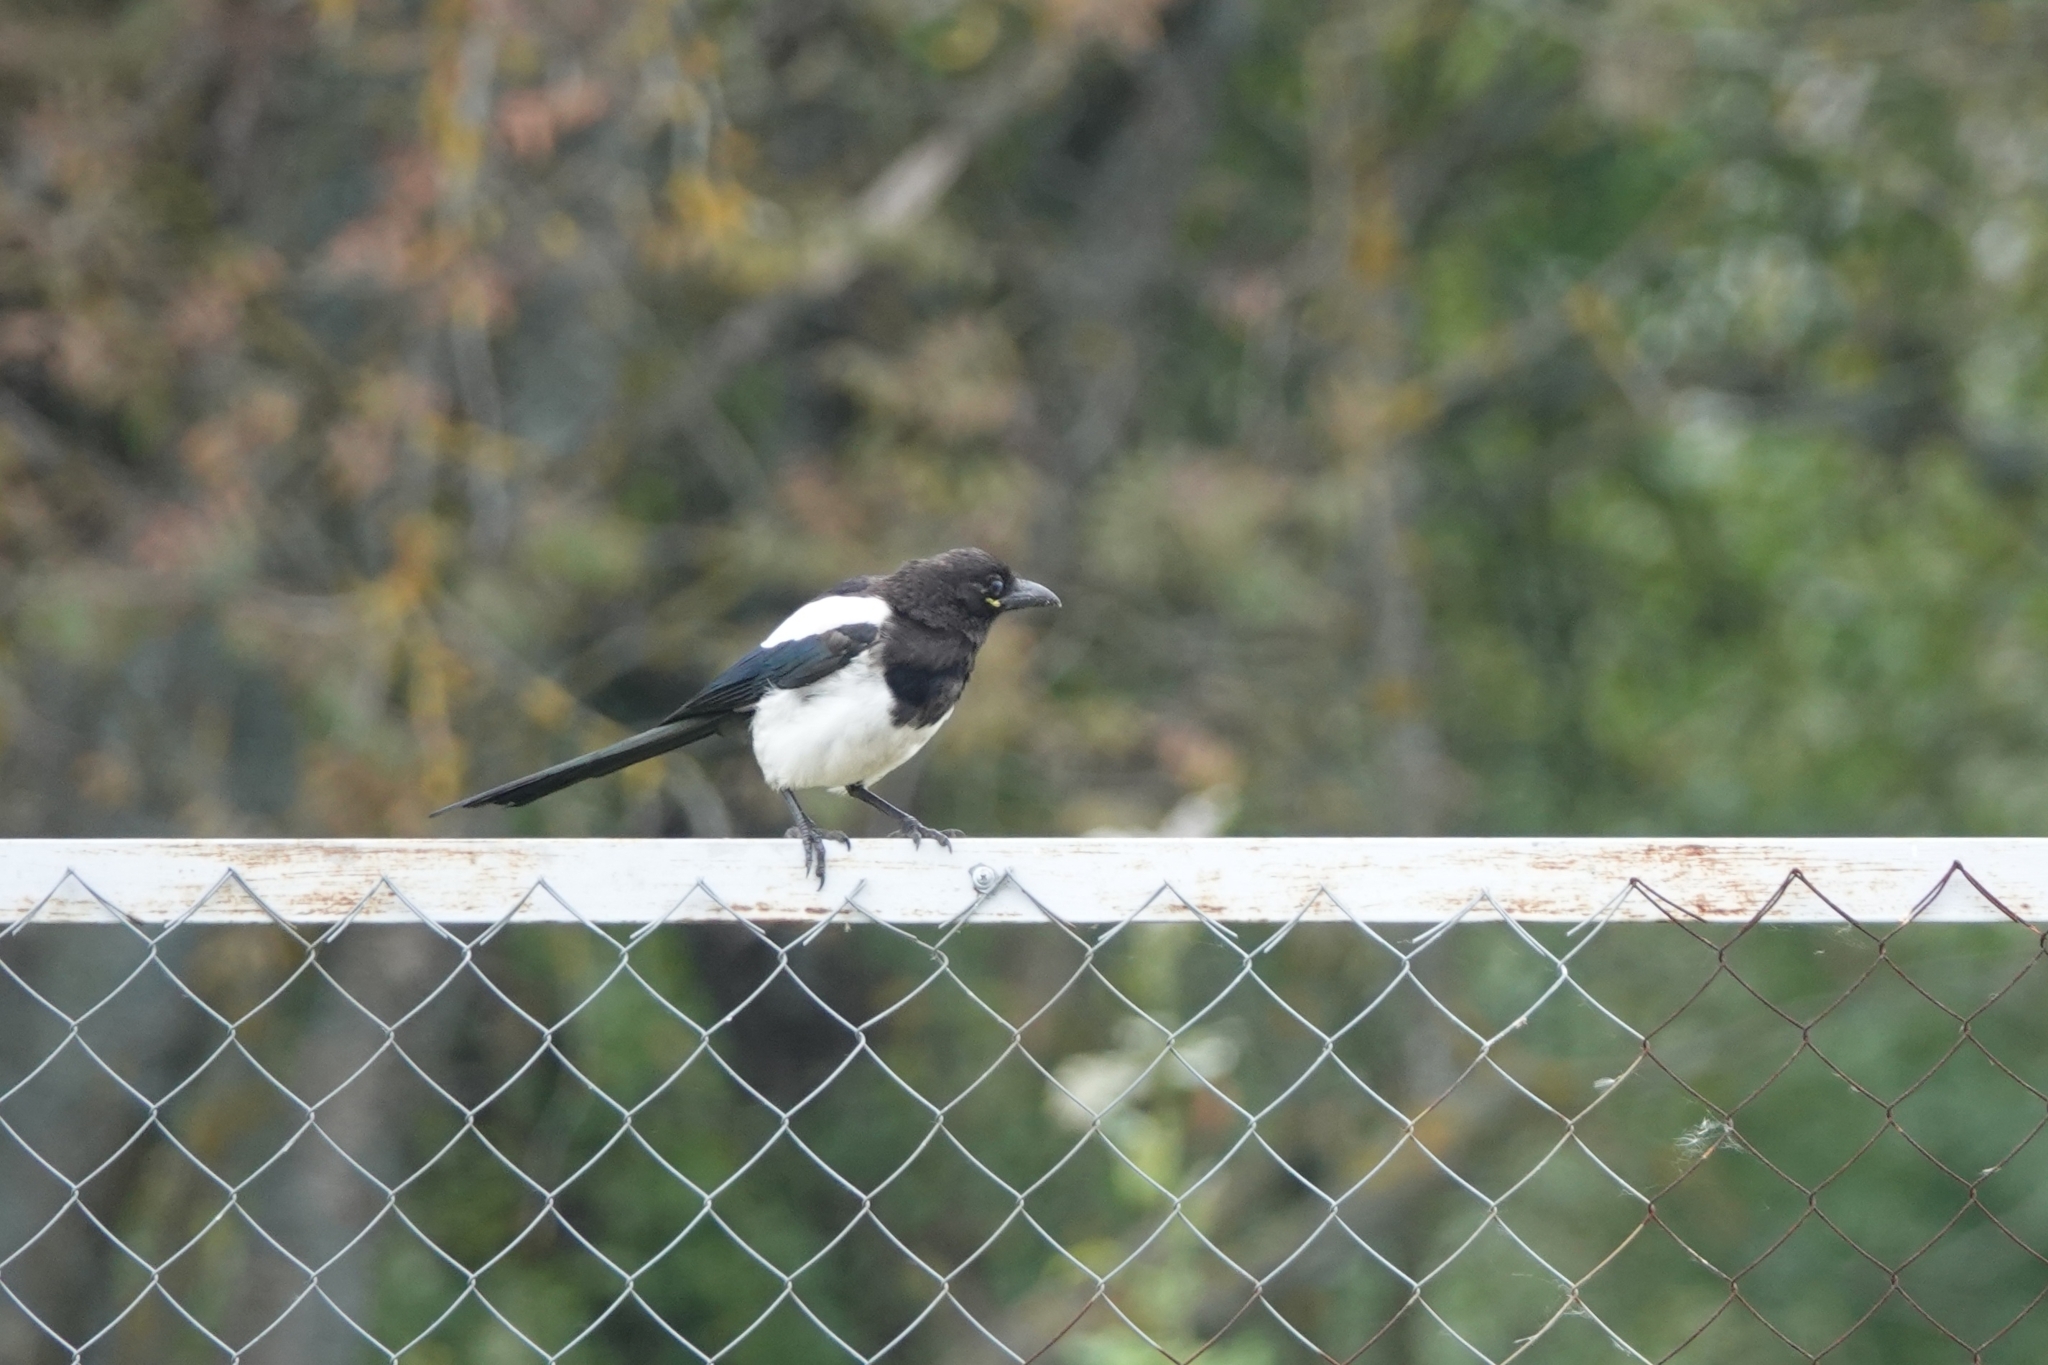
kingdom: Animalia
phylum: Chordata
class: Aves
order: Passeriformes
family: Corvidae
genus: Pica
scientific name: Pica pica
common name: Eurasian magpie
